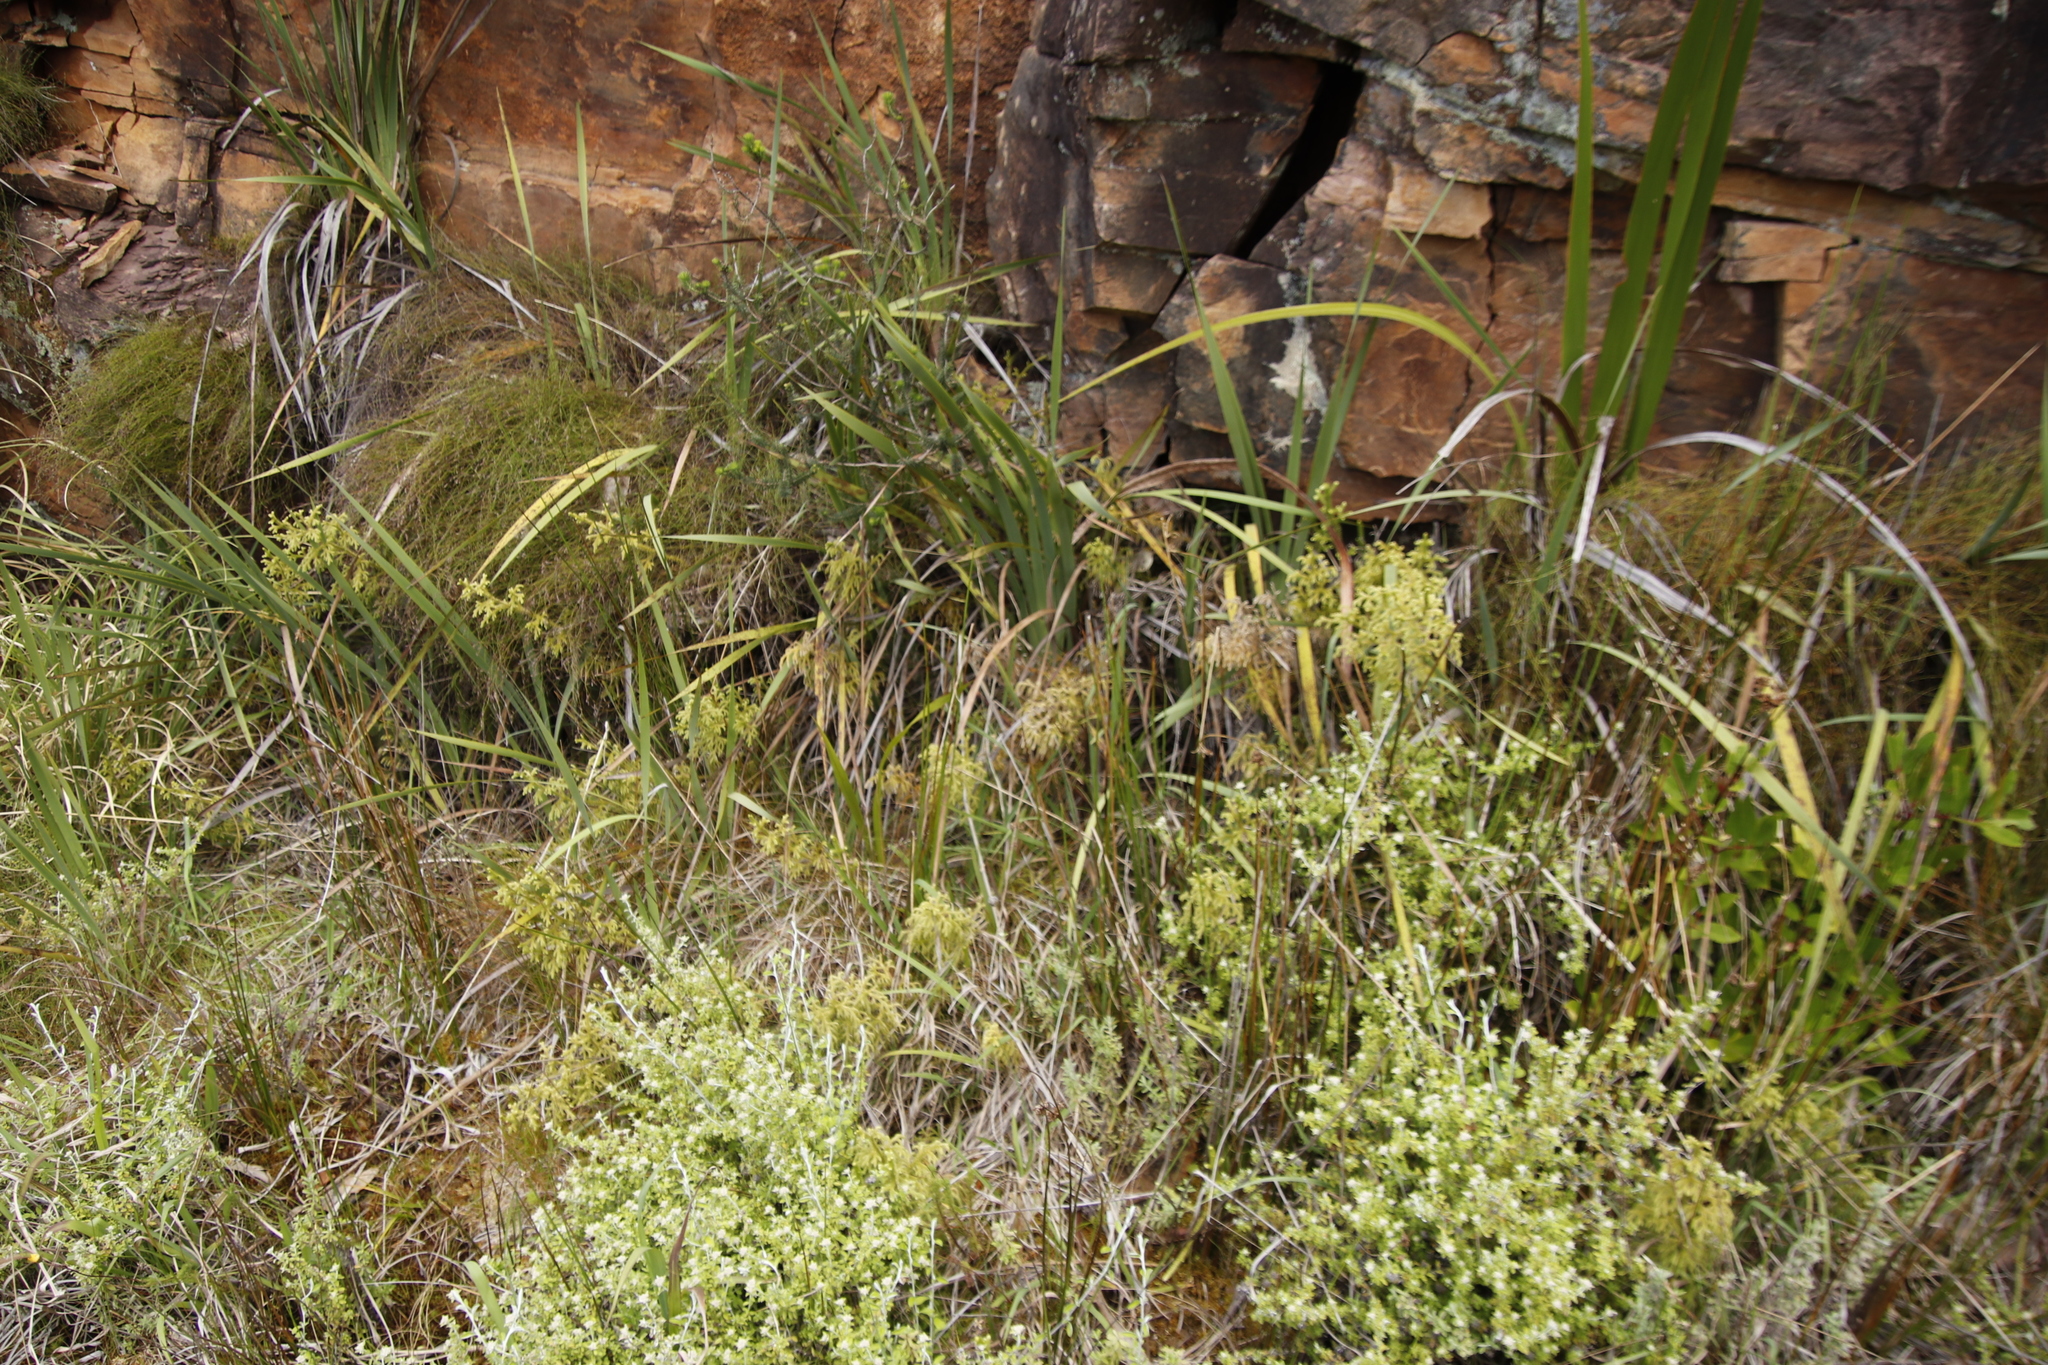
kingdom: Plantae
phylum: Tracheophyta
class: Lycopodiopsida
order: Lycopodiales
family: Lycopodiaceae
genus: Palhinhaea
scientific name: Palhinhaea cernua
